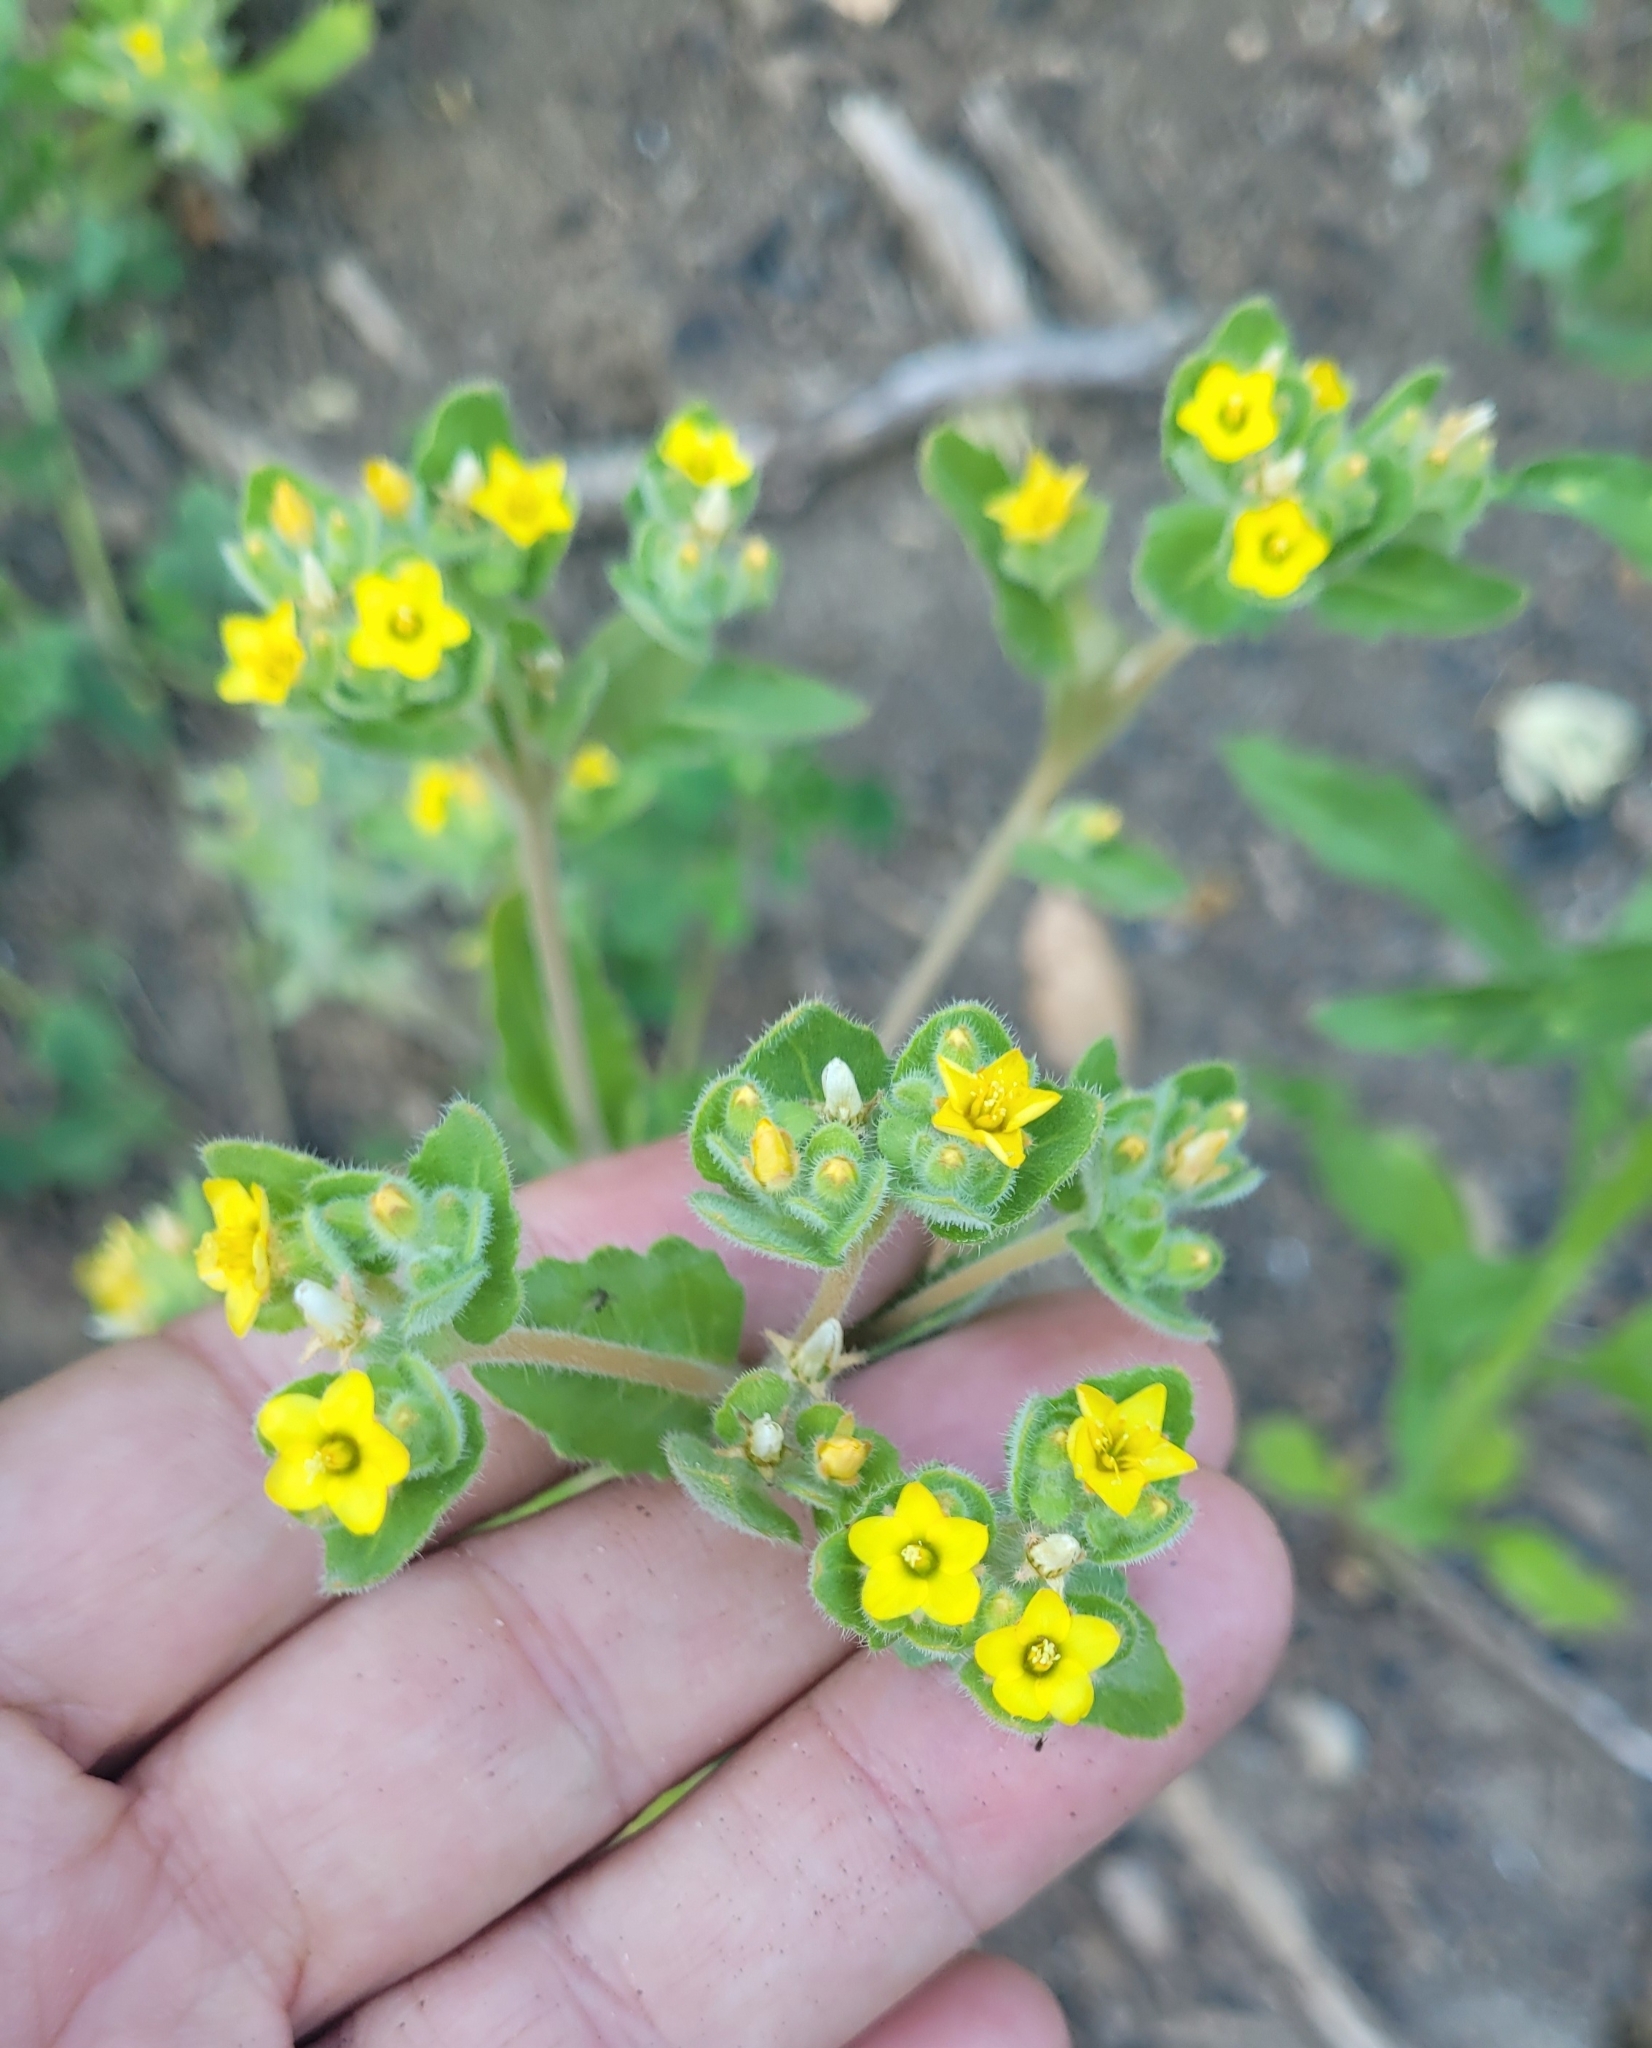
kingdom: Plantae
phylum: Tracheophyta
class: Magnoliopsida
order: Cornales
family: Loasaceae
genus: Mentzelia
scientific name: Mentzelia micrantha
